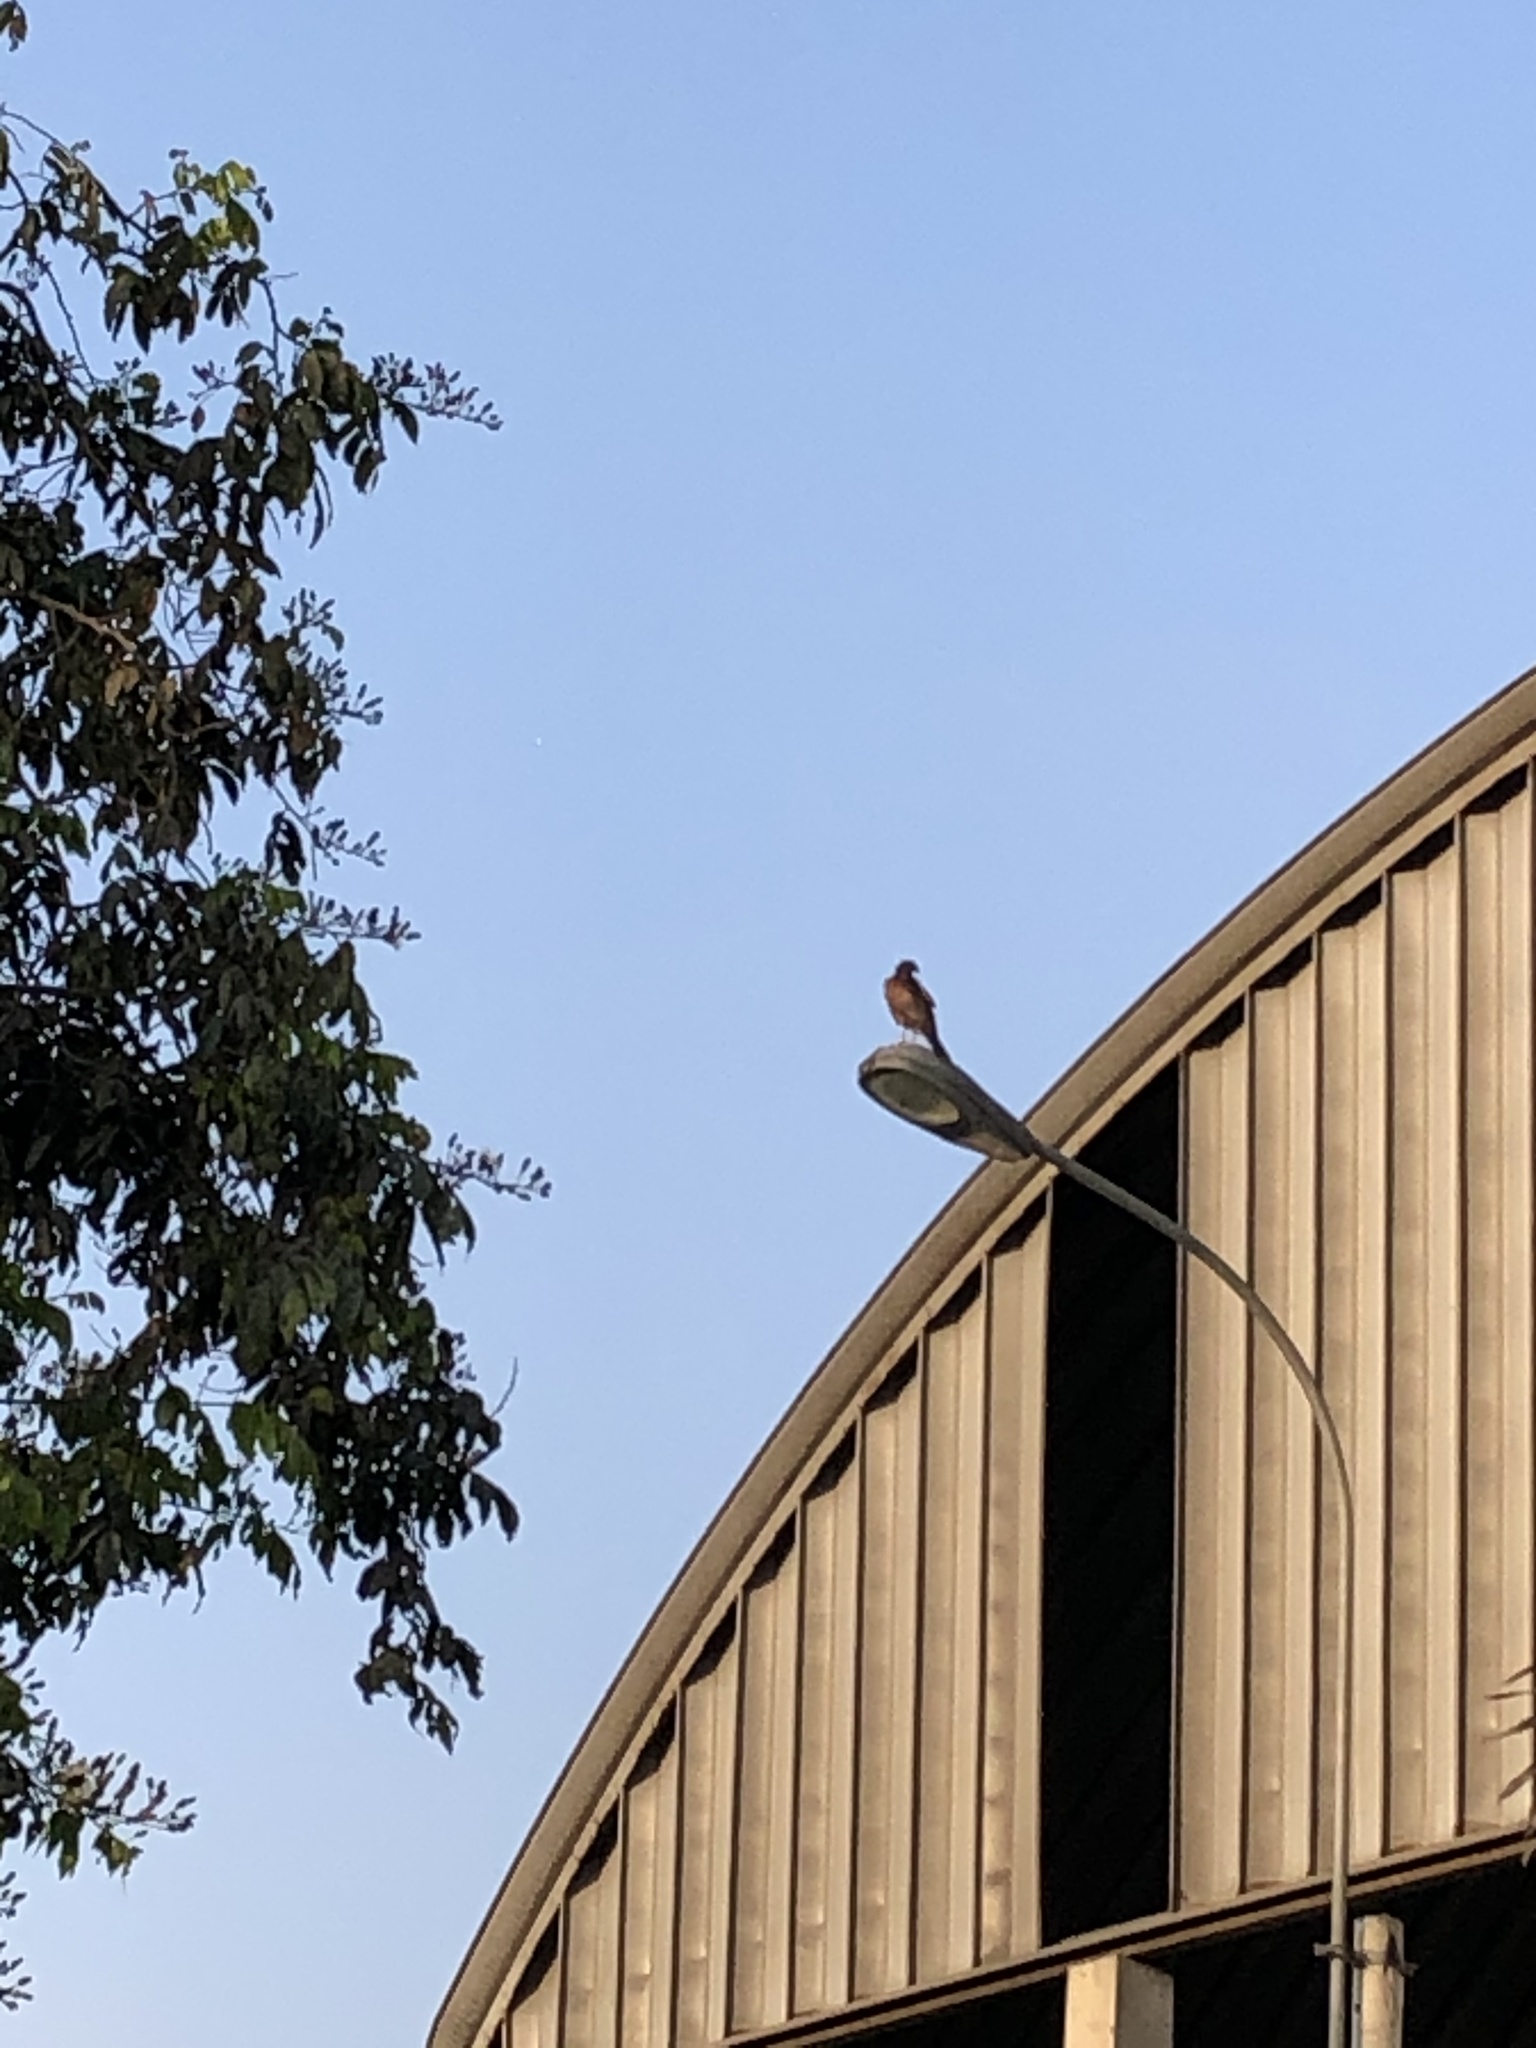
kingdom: Animalia
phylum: Chordata
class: Aves
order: Accipitriformes
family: Accipitridae
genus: Parabuteo
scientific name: Parabuteo unicinctus
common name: Harris's hawk
